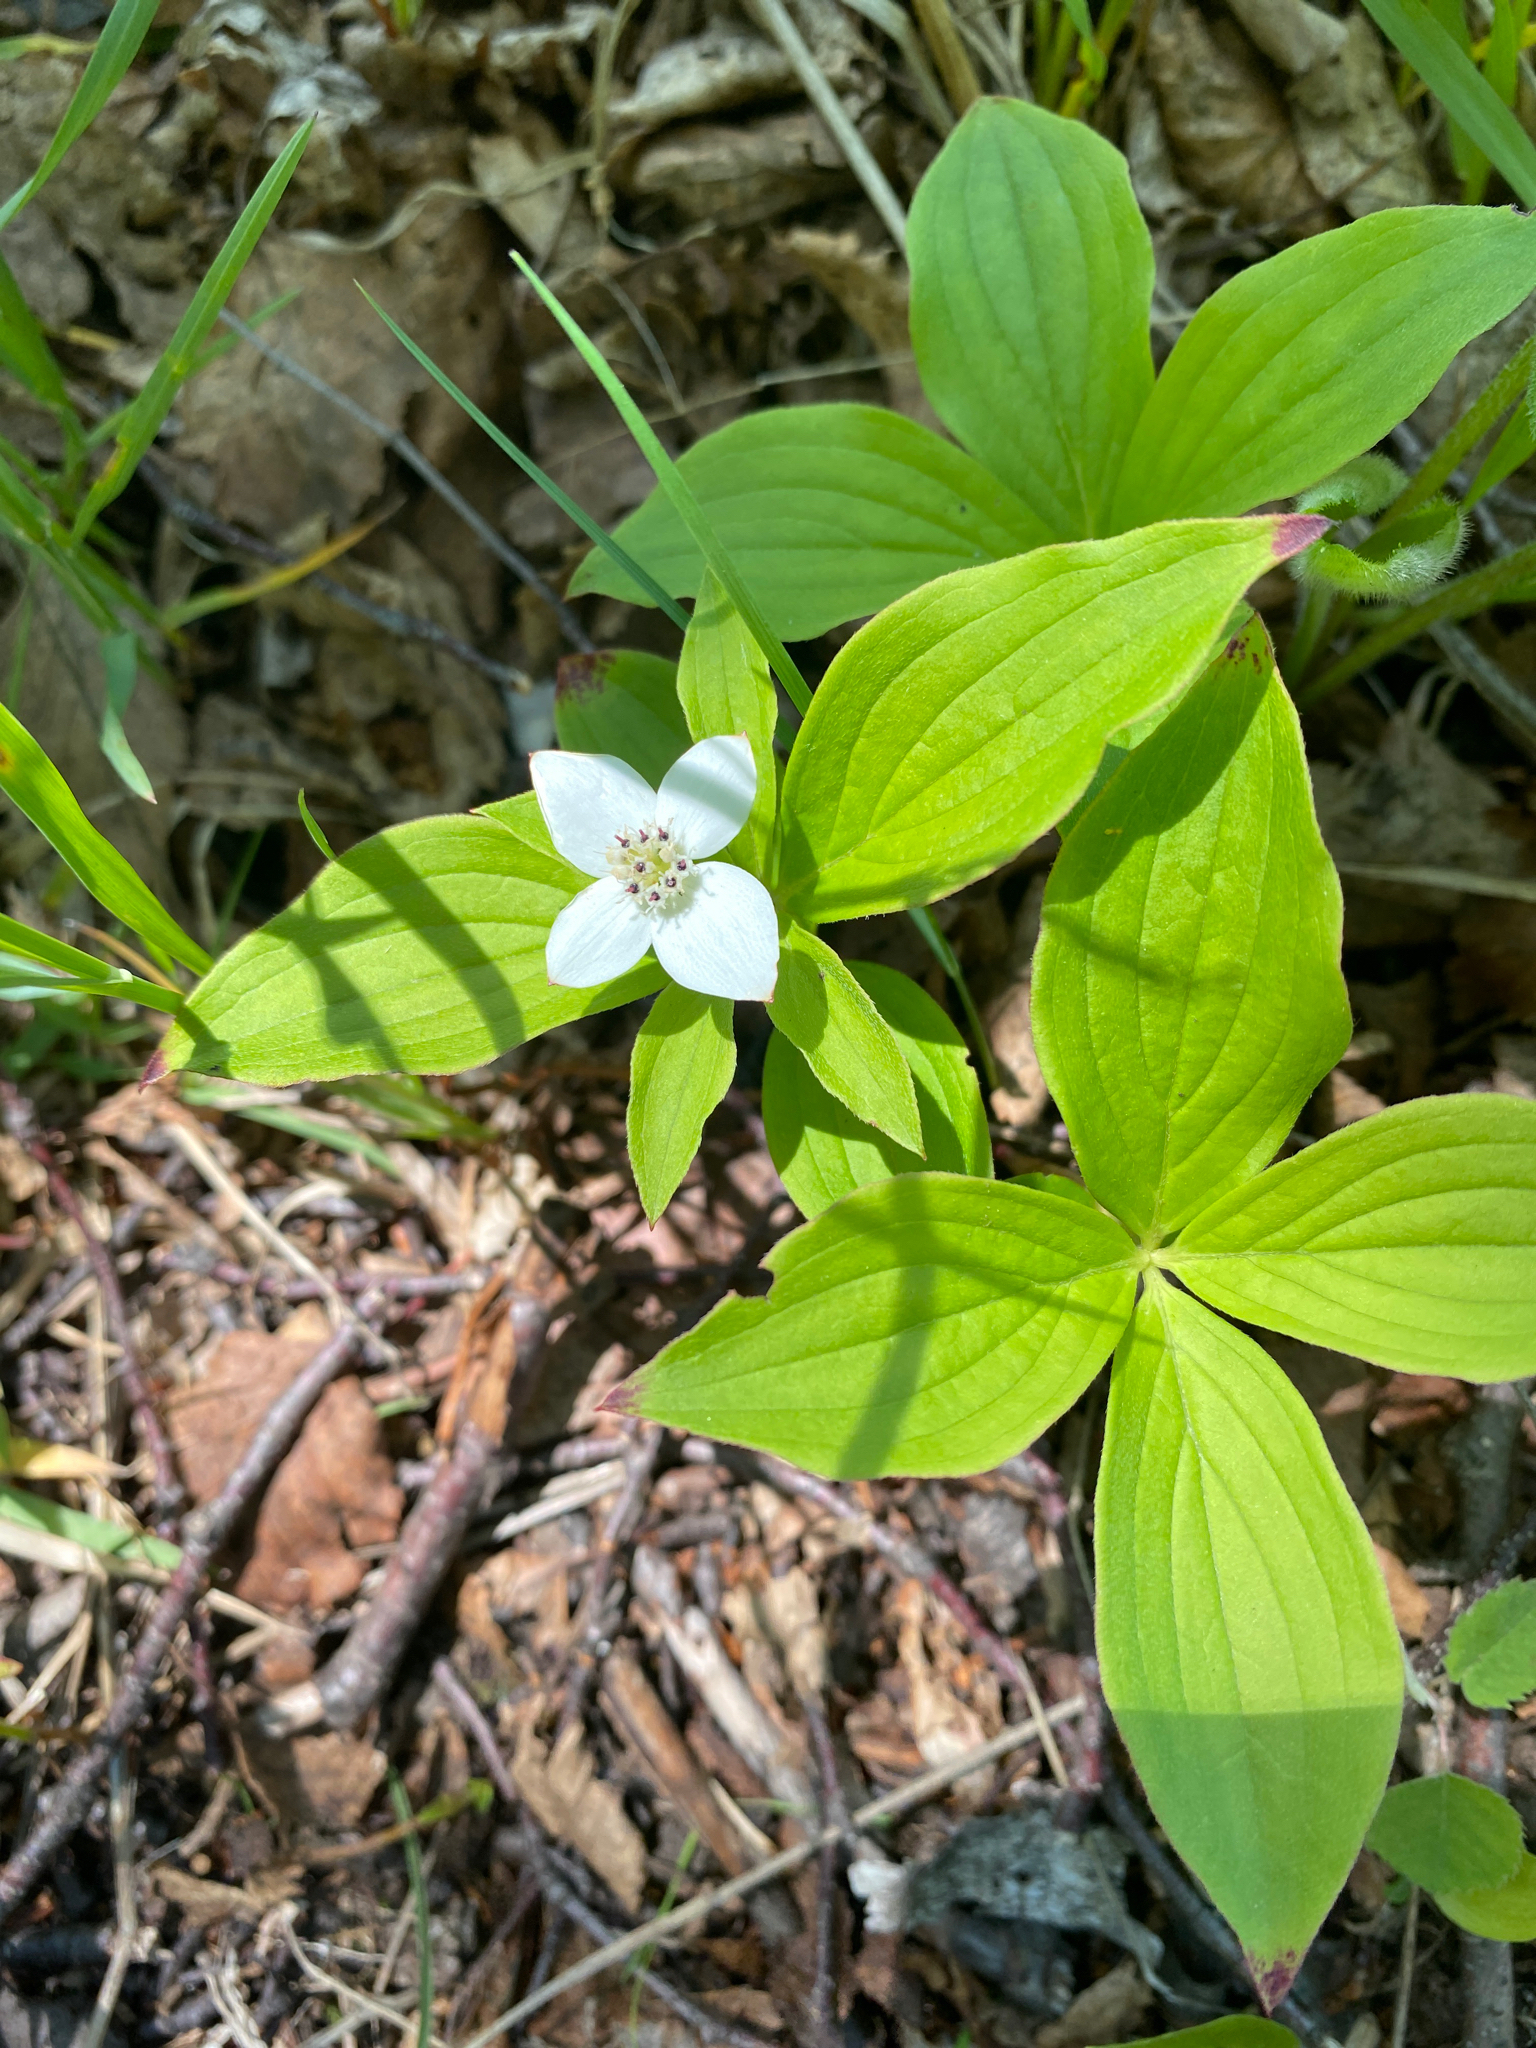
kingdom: Plantae
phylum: Tracheophyta
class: Magnoliopsida
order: Cornales
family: Cornaceae
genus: Cornus
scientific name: Cornus canadensis
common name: Creeping dogwood
